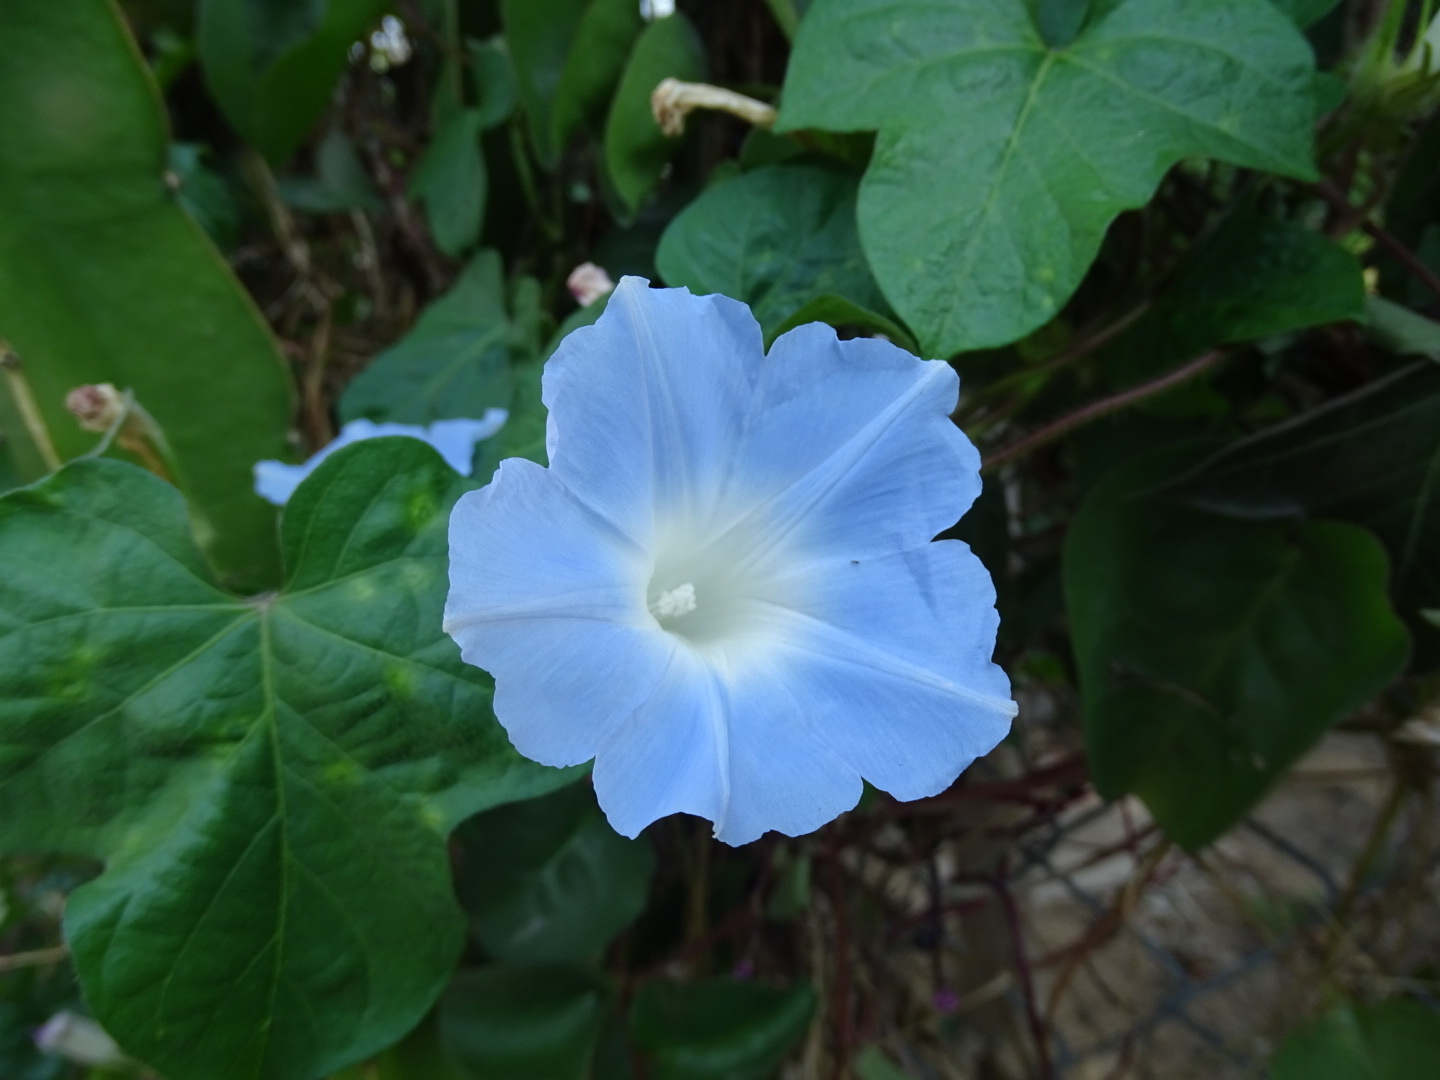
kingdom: Plantae
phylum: Tracheophyta
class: Magnoliopsida
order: Solanales
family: Convolvulaceae
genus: Ipomoea
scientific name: Ipomoea nil
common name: Japanese morning-glory
